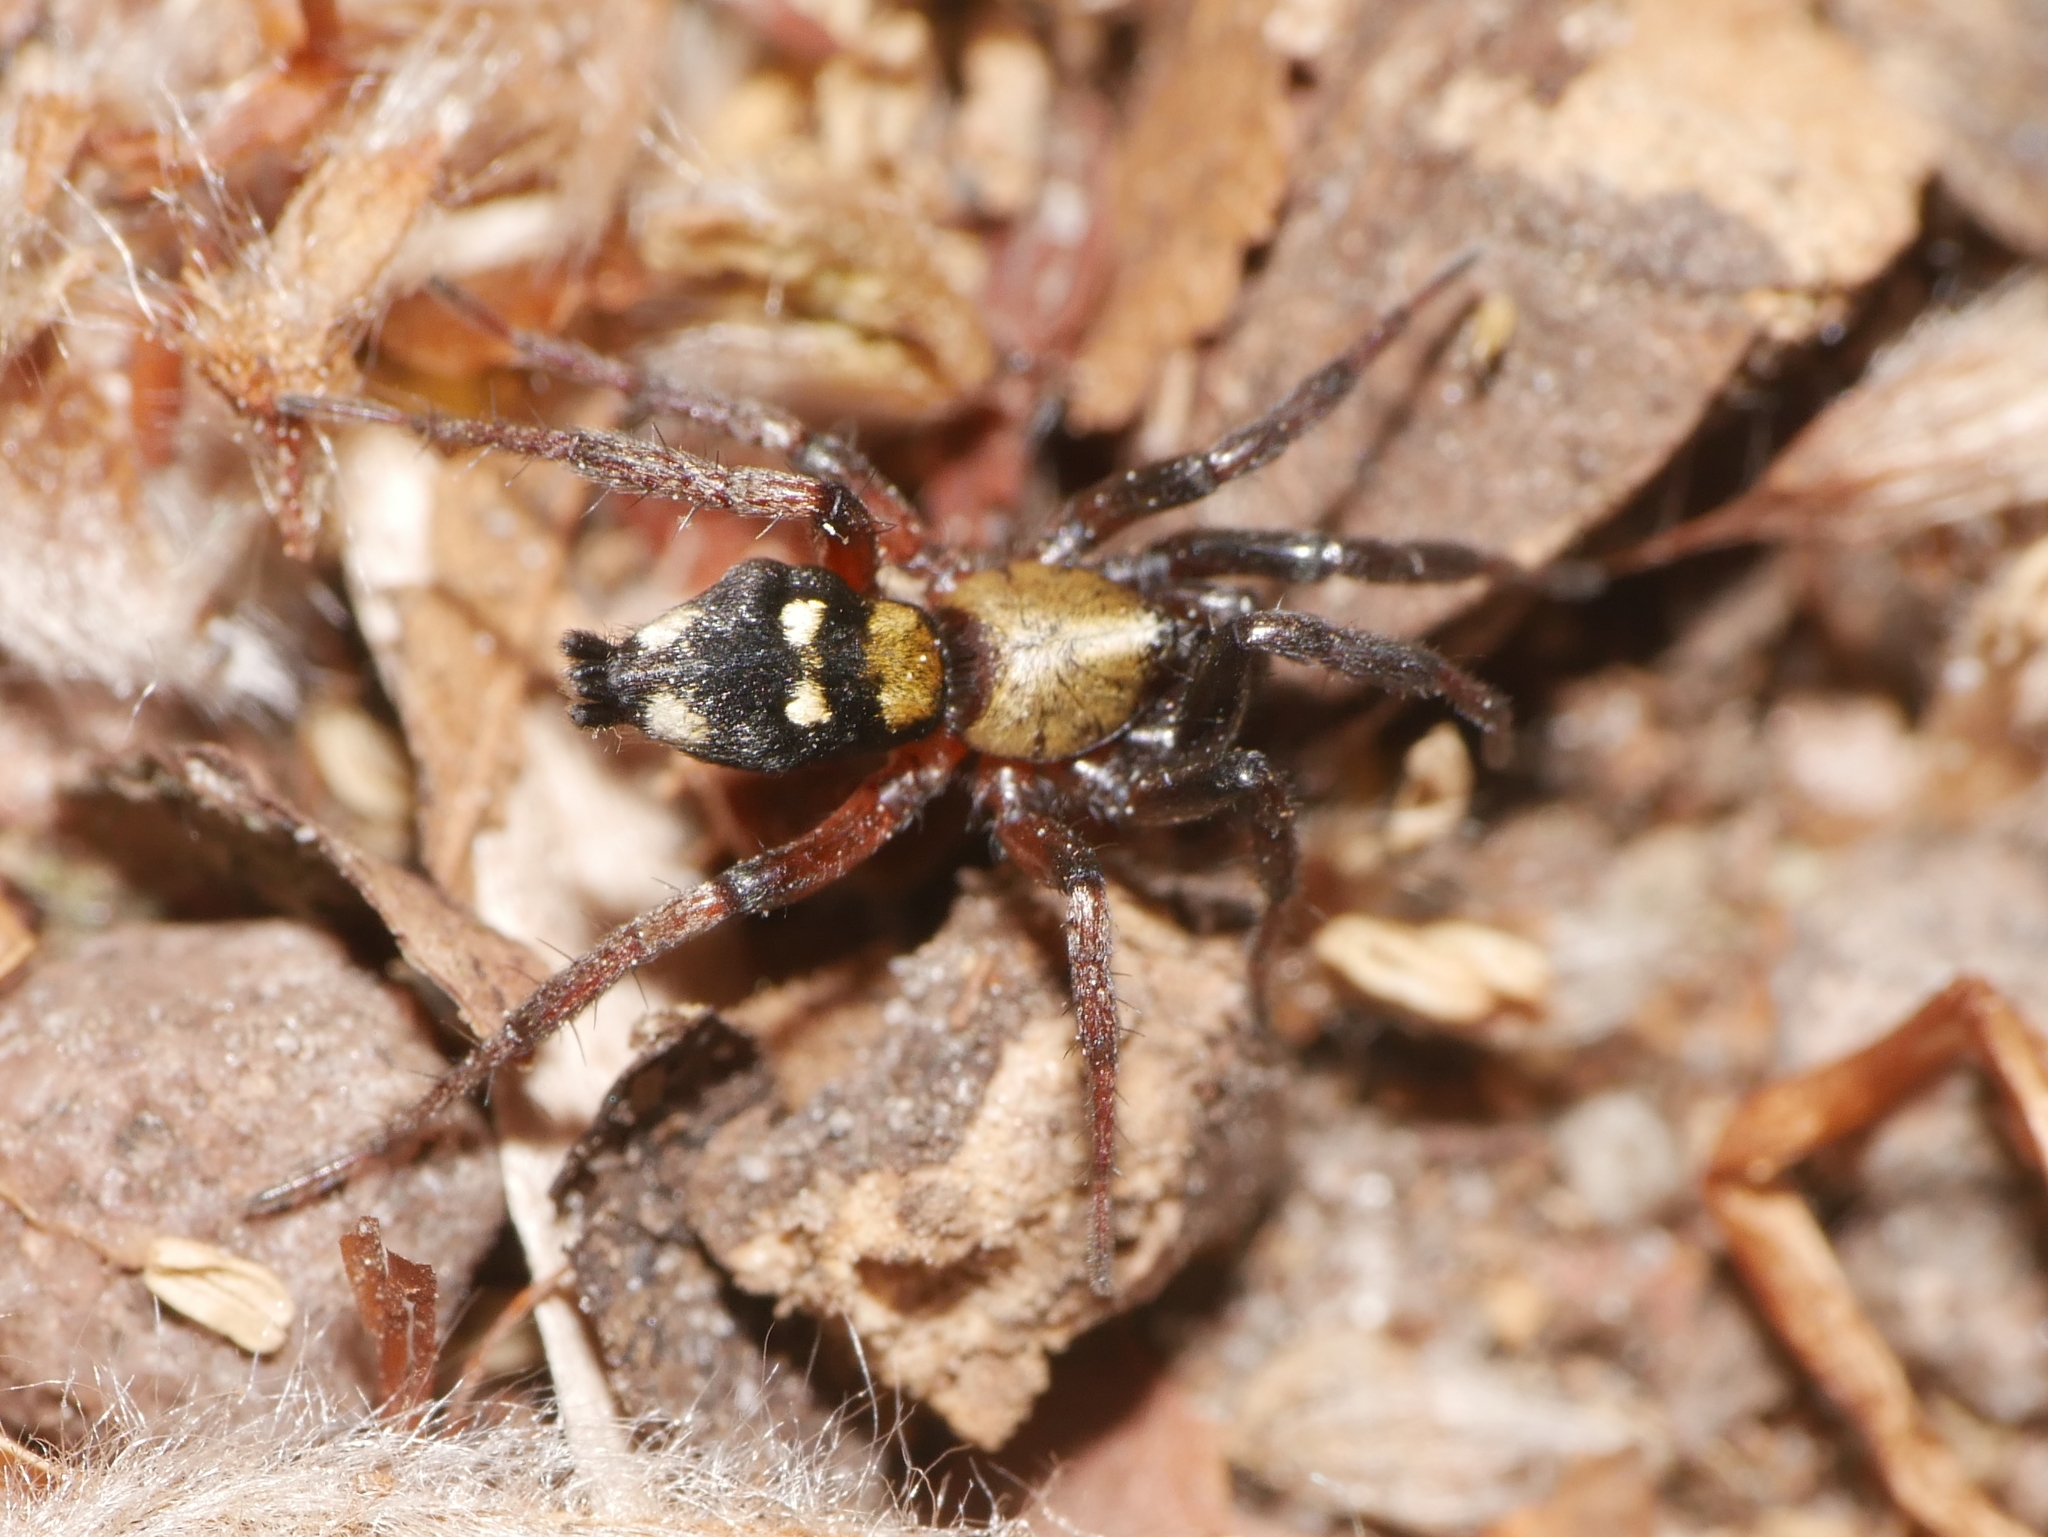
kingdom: Animalia
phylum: Arthropoda
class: Arachnida
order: Araneae
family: Gnaphosidae
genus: Callilepis
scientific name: Callilepis
